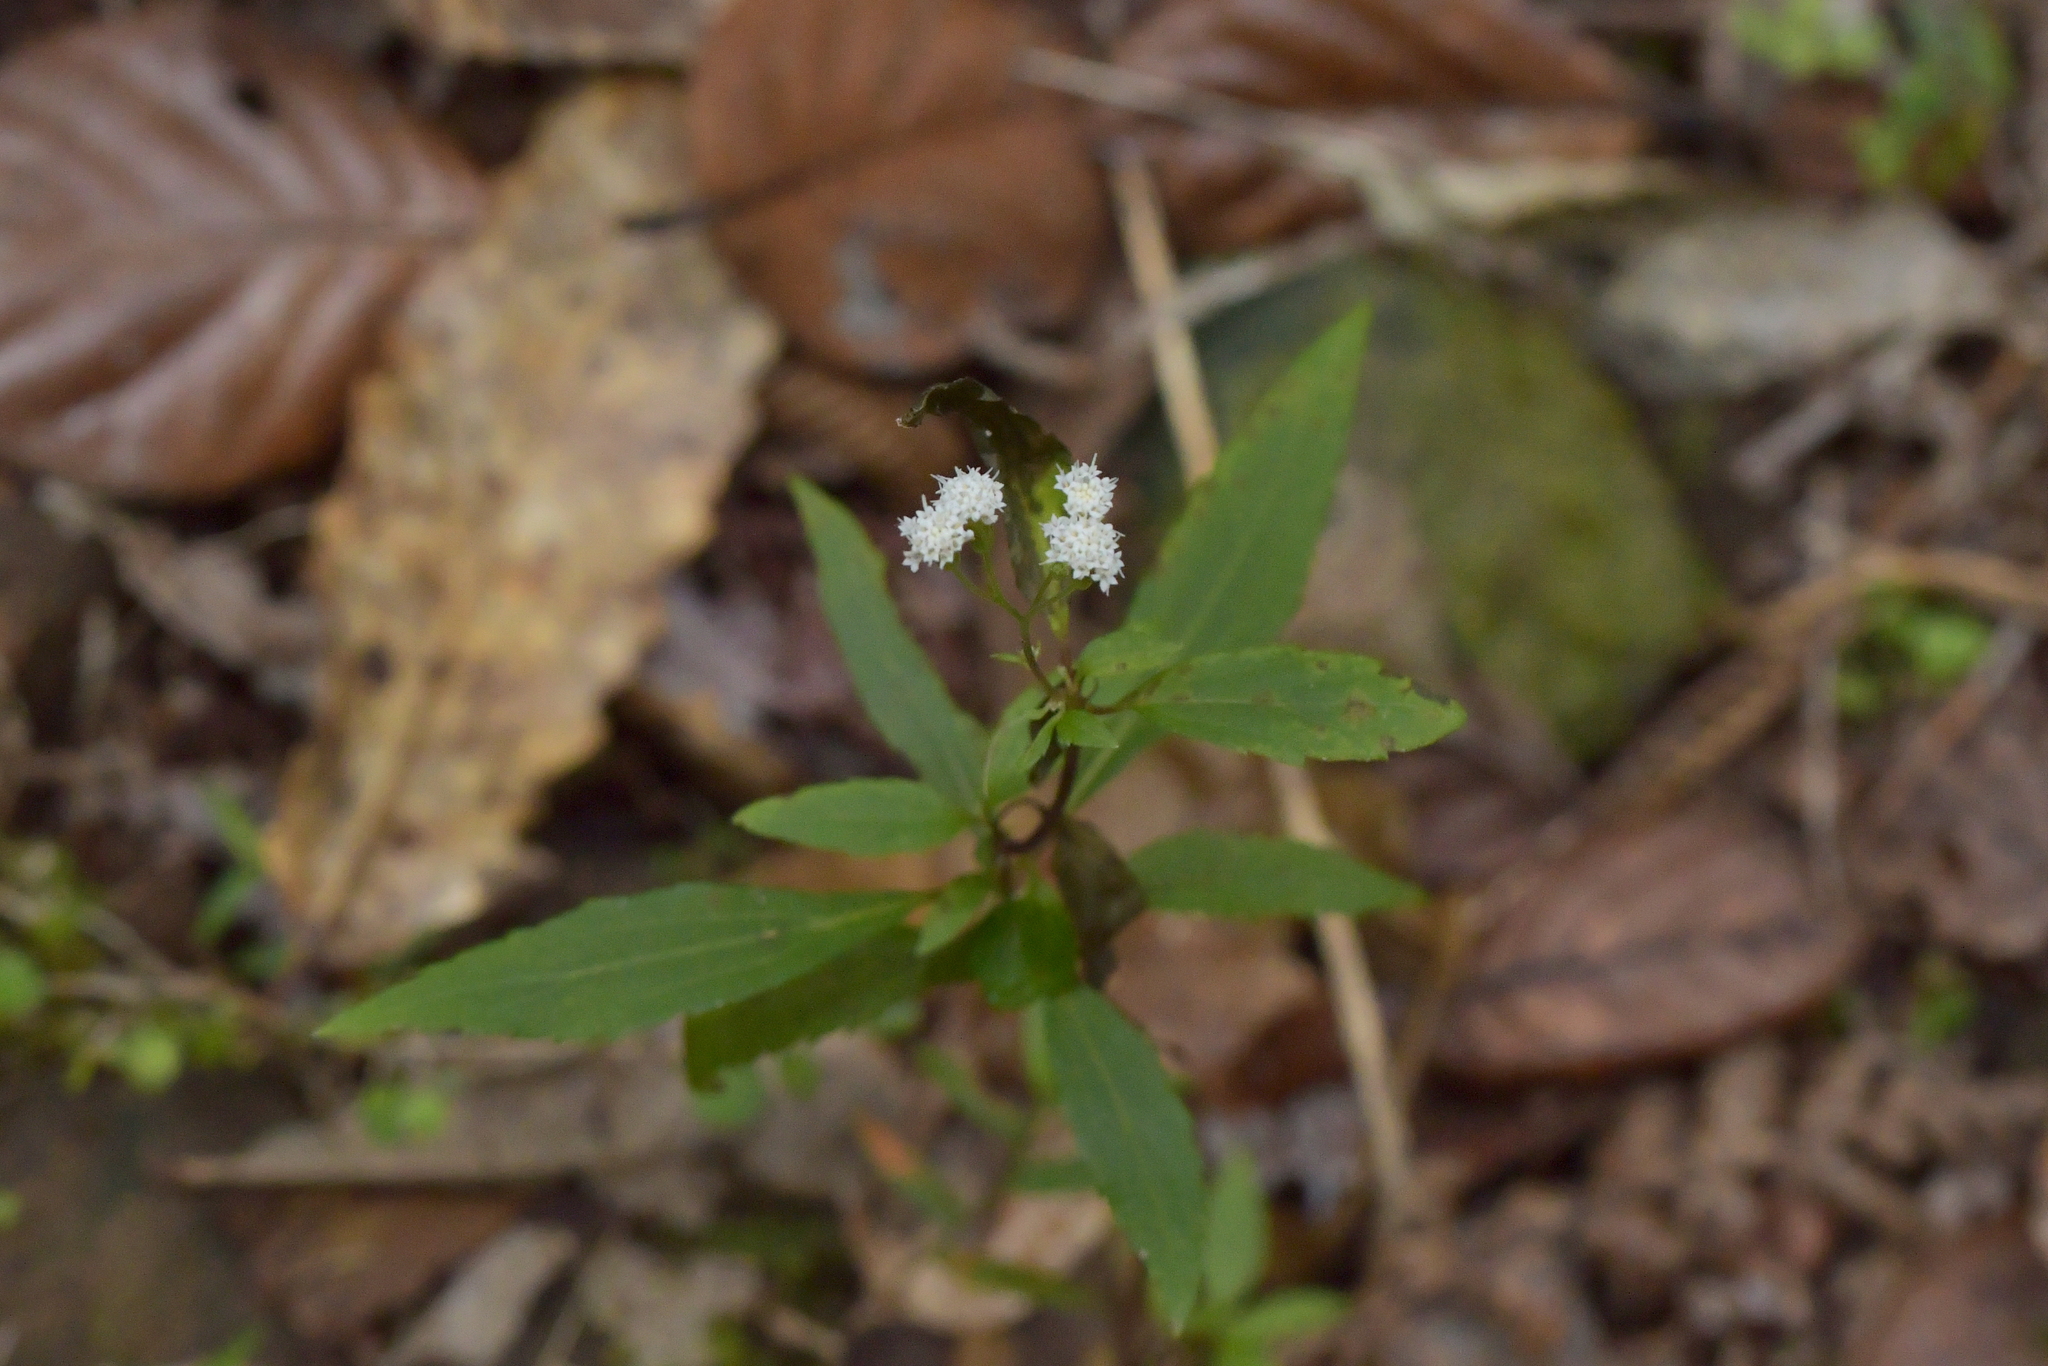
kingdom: Plantae
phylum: Tracheophyta
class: Magnoliopsida
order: Asterales
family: Asteraceae
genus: Ageratina
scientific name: Ageratina riparia
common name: Creeping croftonweed
